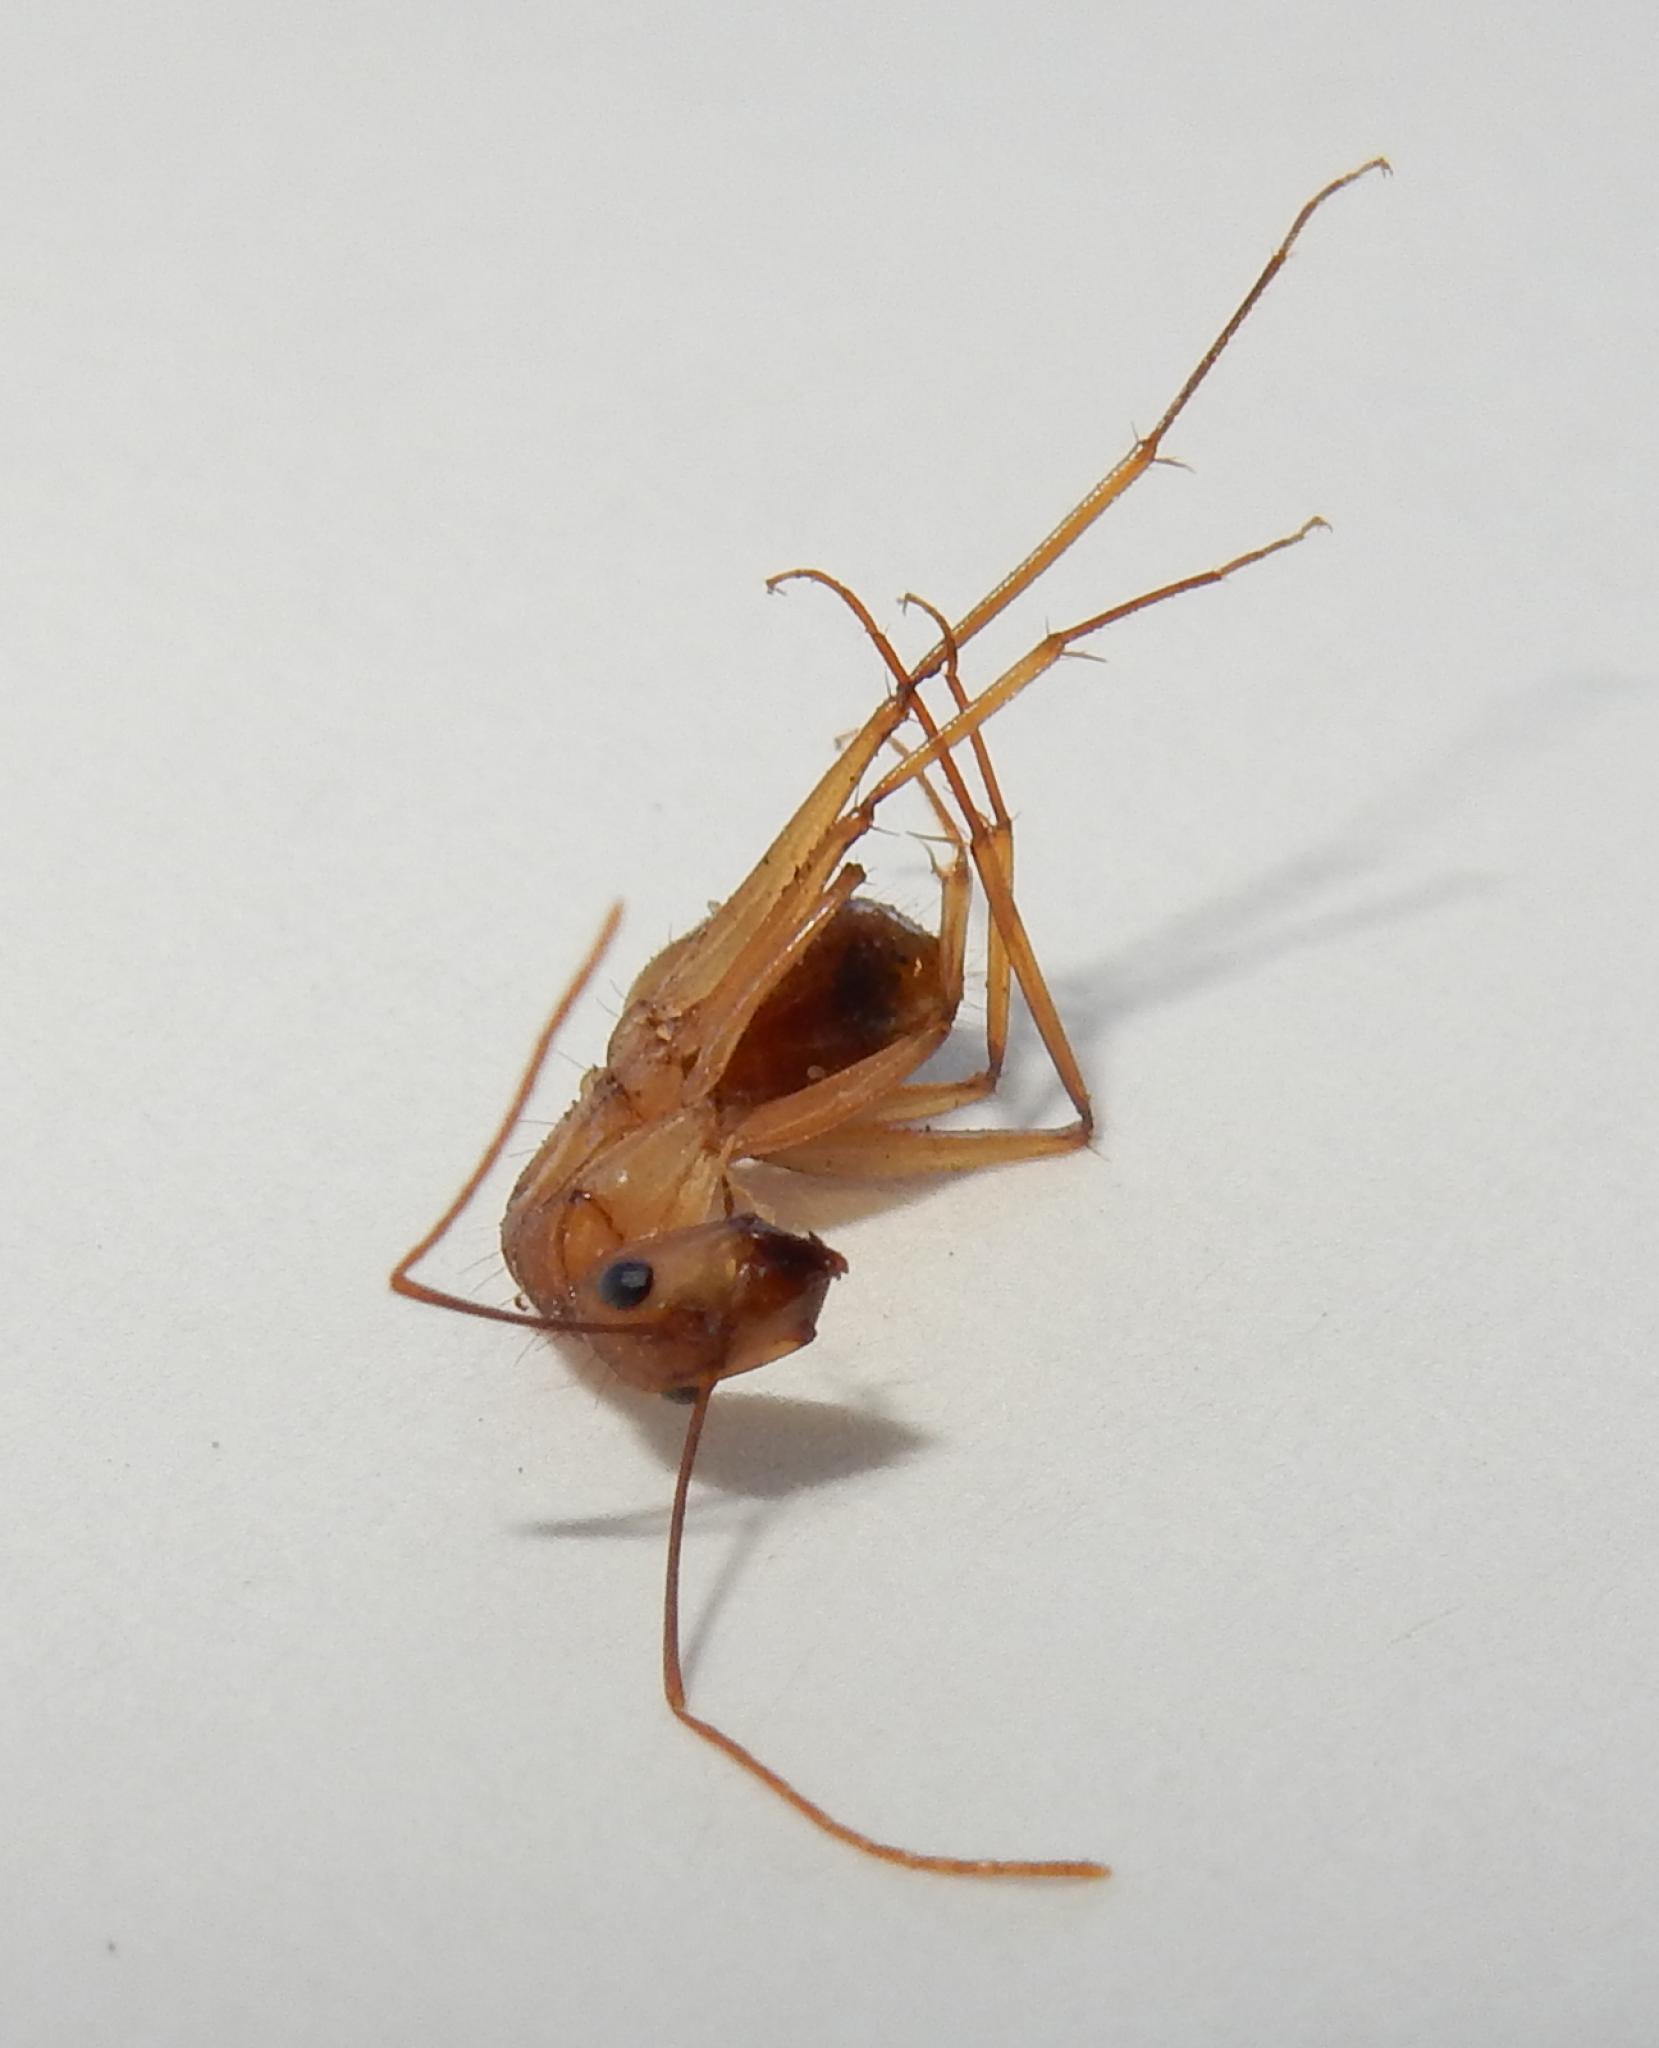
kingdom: Animalia
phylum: Arthropoda
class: Insecta
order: Hymenoptera
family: Formicidae
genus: Camponotus
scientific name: Camponotus caffer
